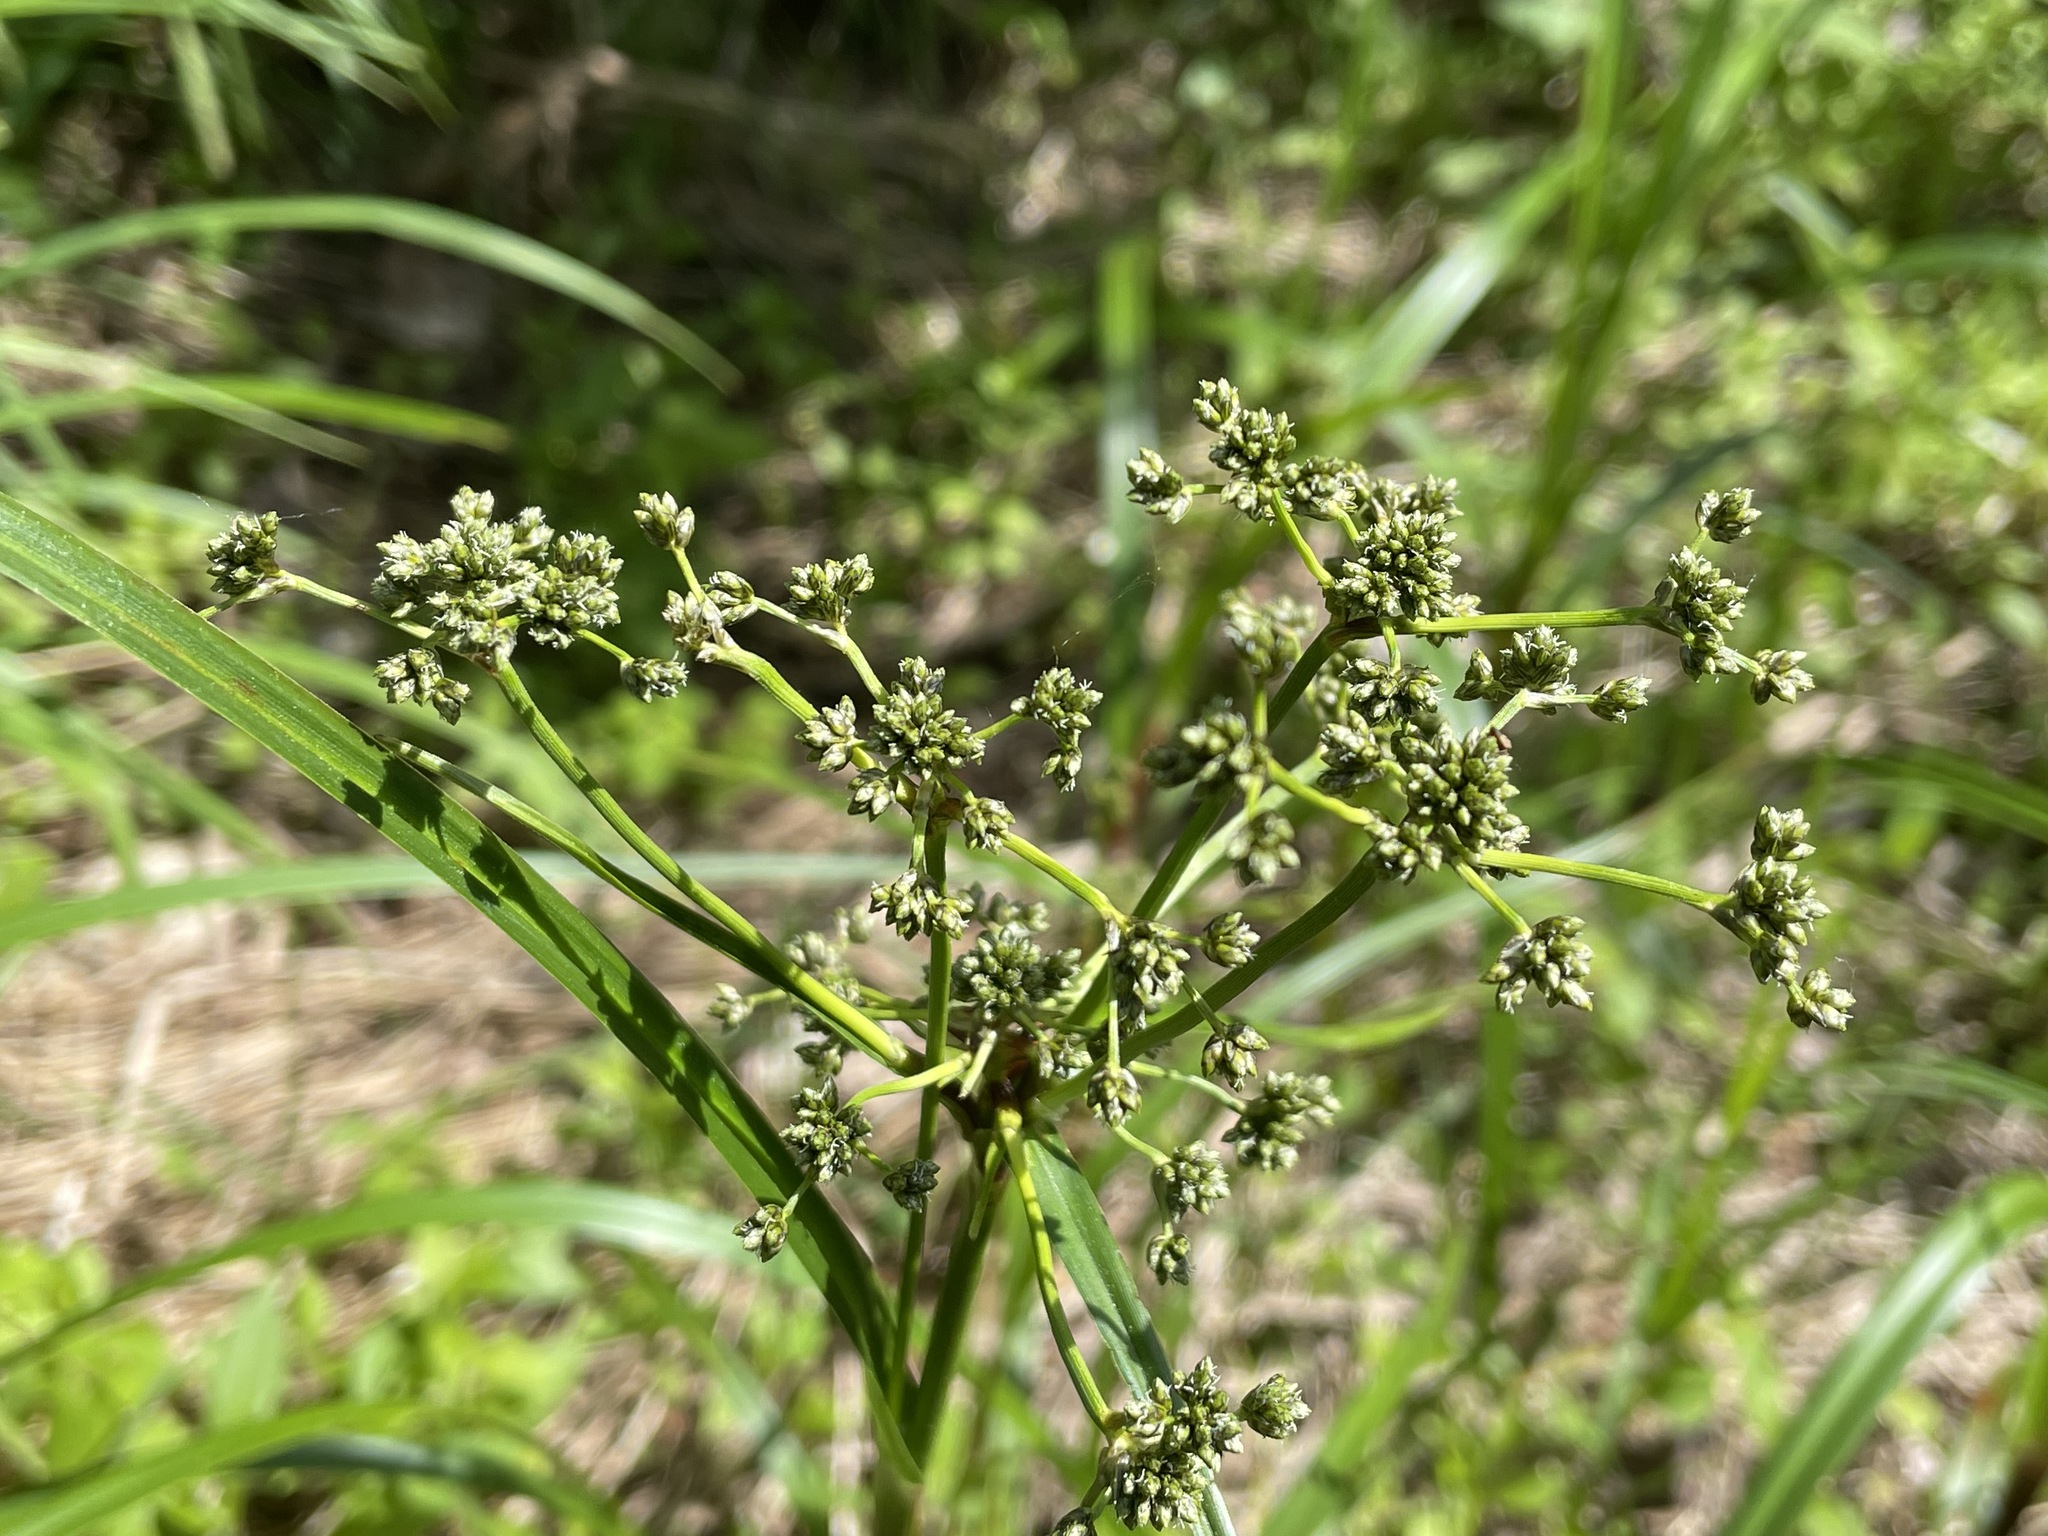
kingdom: Plantae
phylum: Tracheophyta
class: Liliopsida
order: Poales
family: Cyperaceae
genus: Scirpus
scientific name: Scirpus microcarpus
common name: Panicled bulrush
